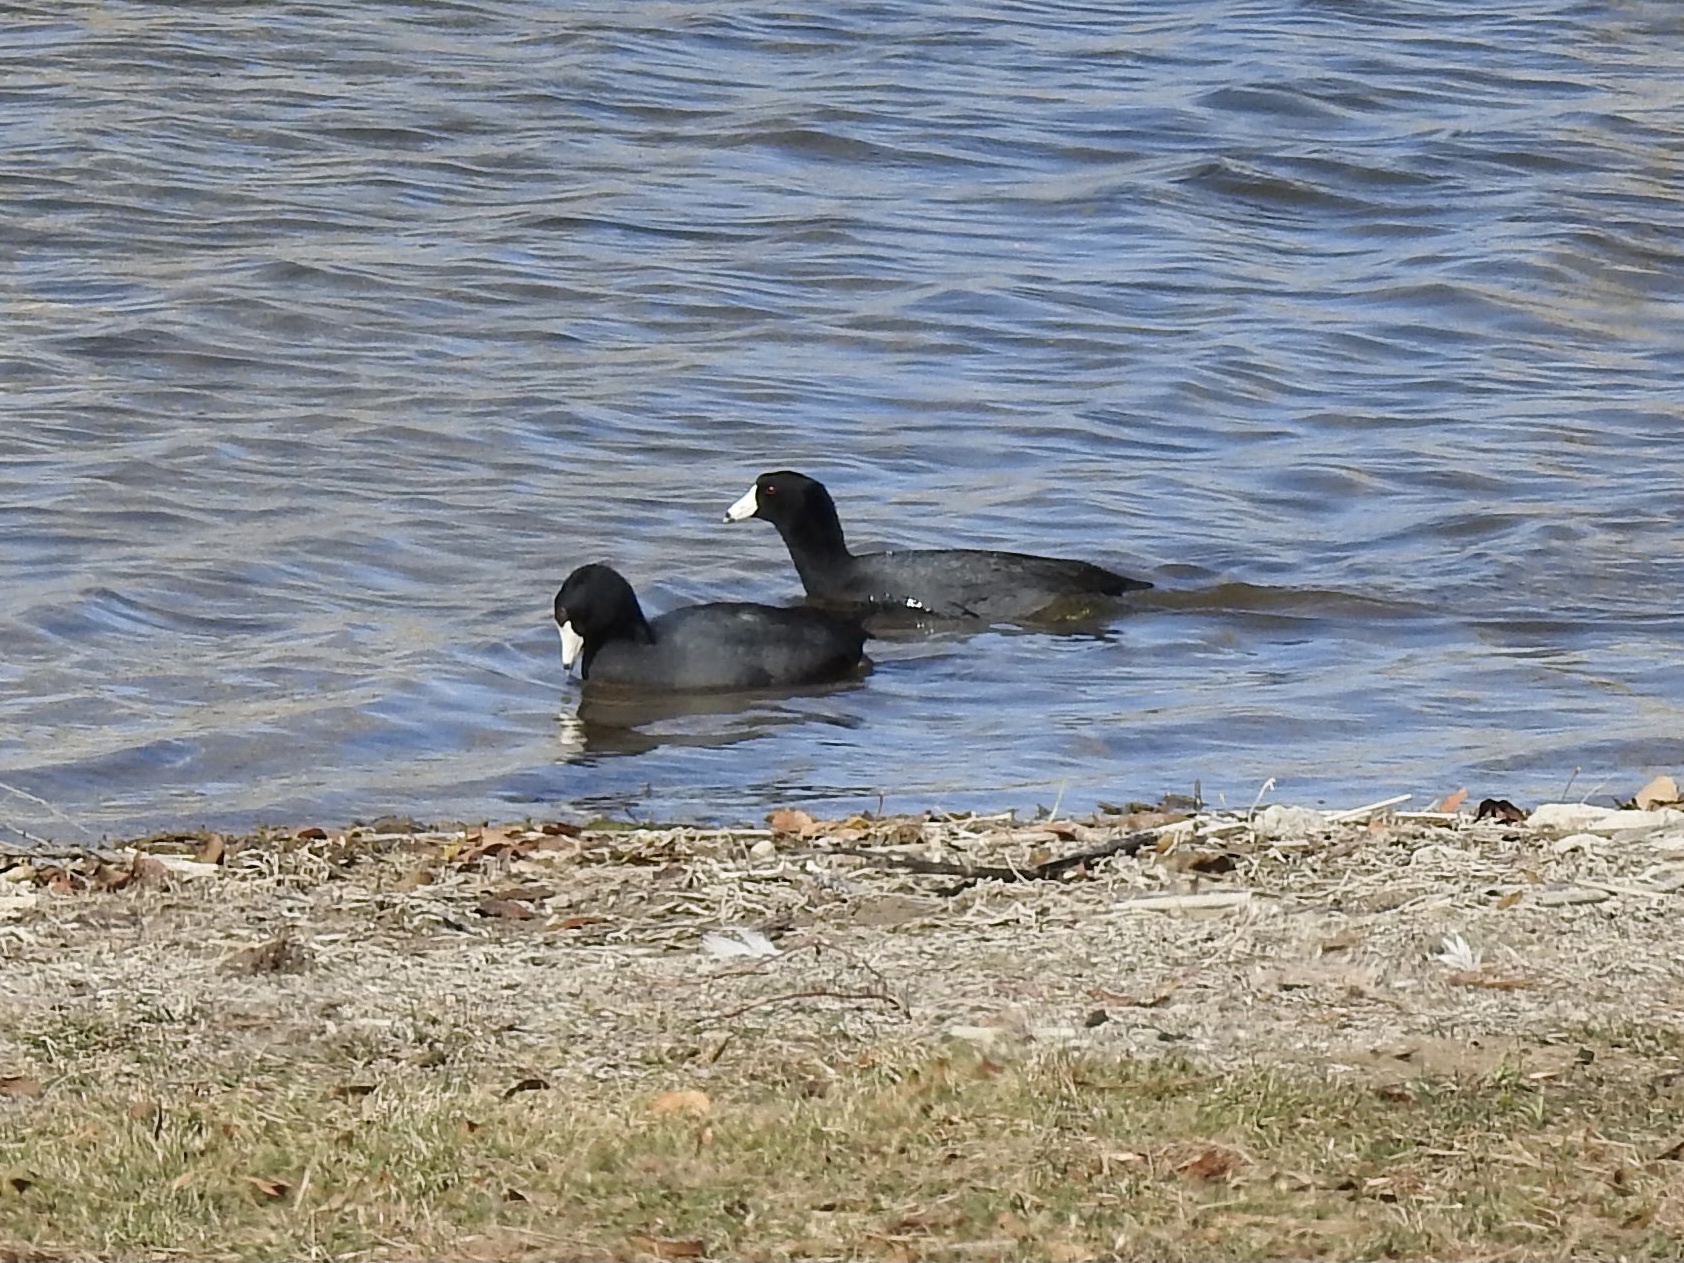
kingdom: Animalia
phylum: Chordata
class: Aves
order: Gruiformes
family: Rallidae
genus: Fulica
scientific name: Fulica americana
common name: American coot
